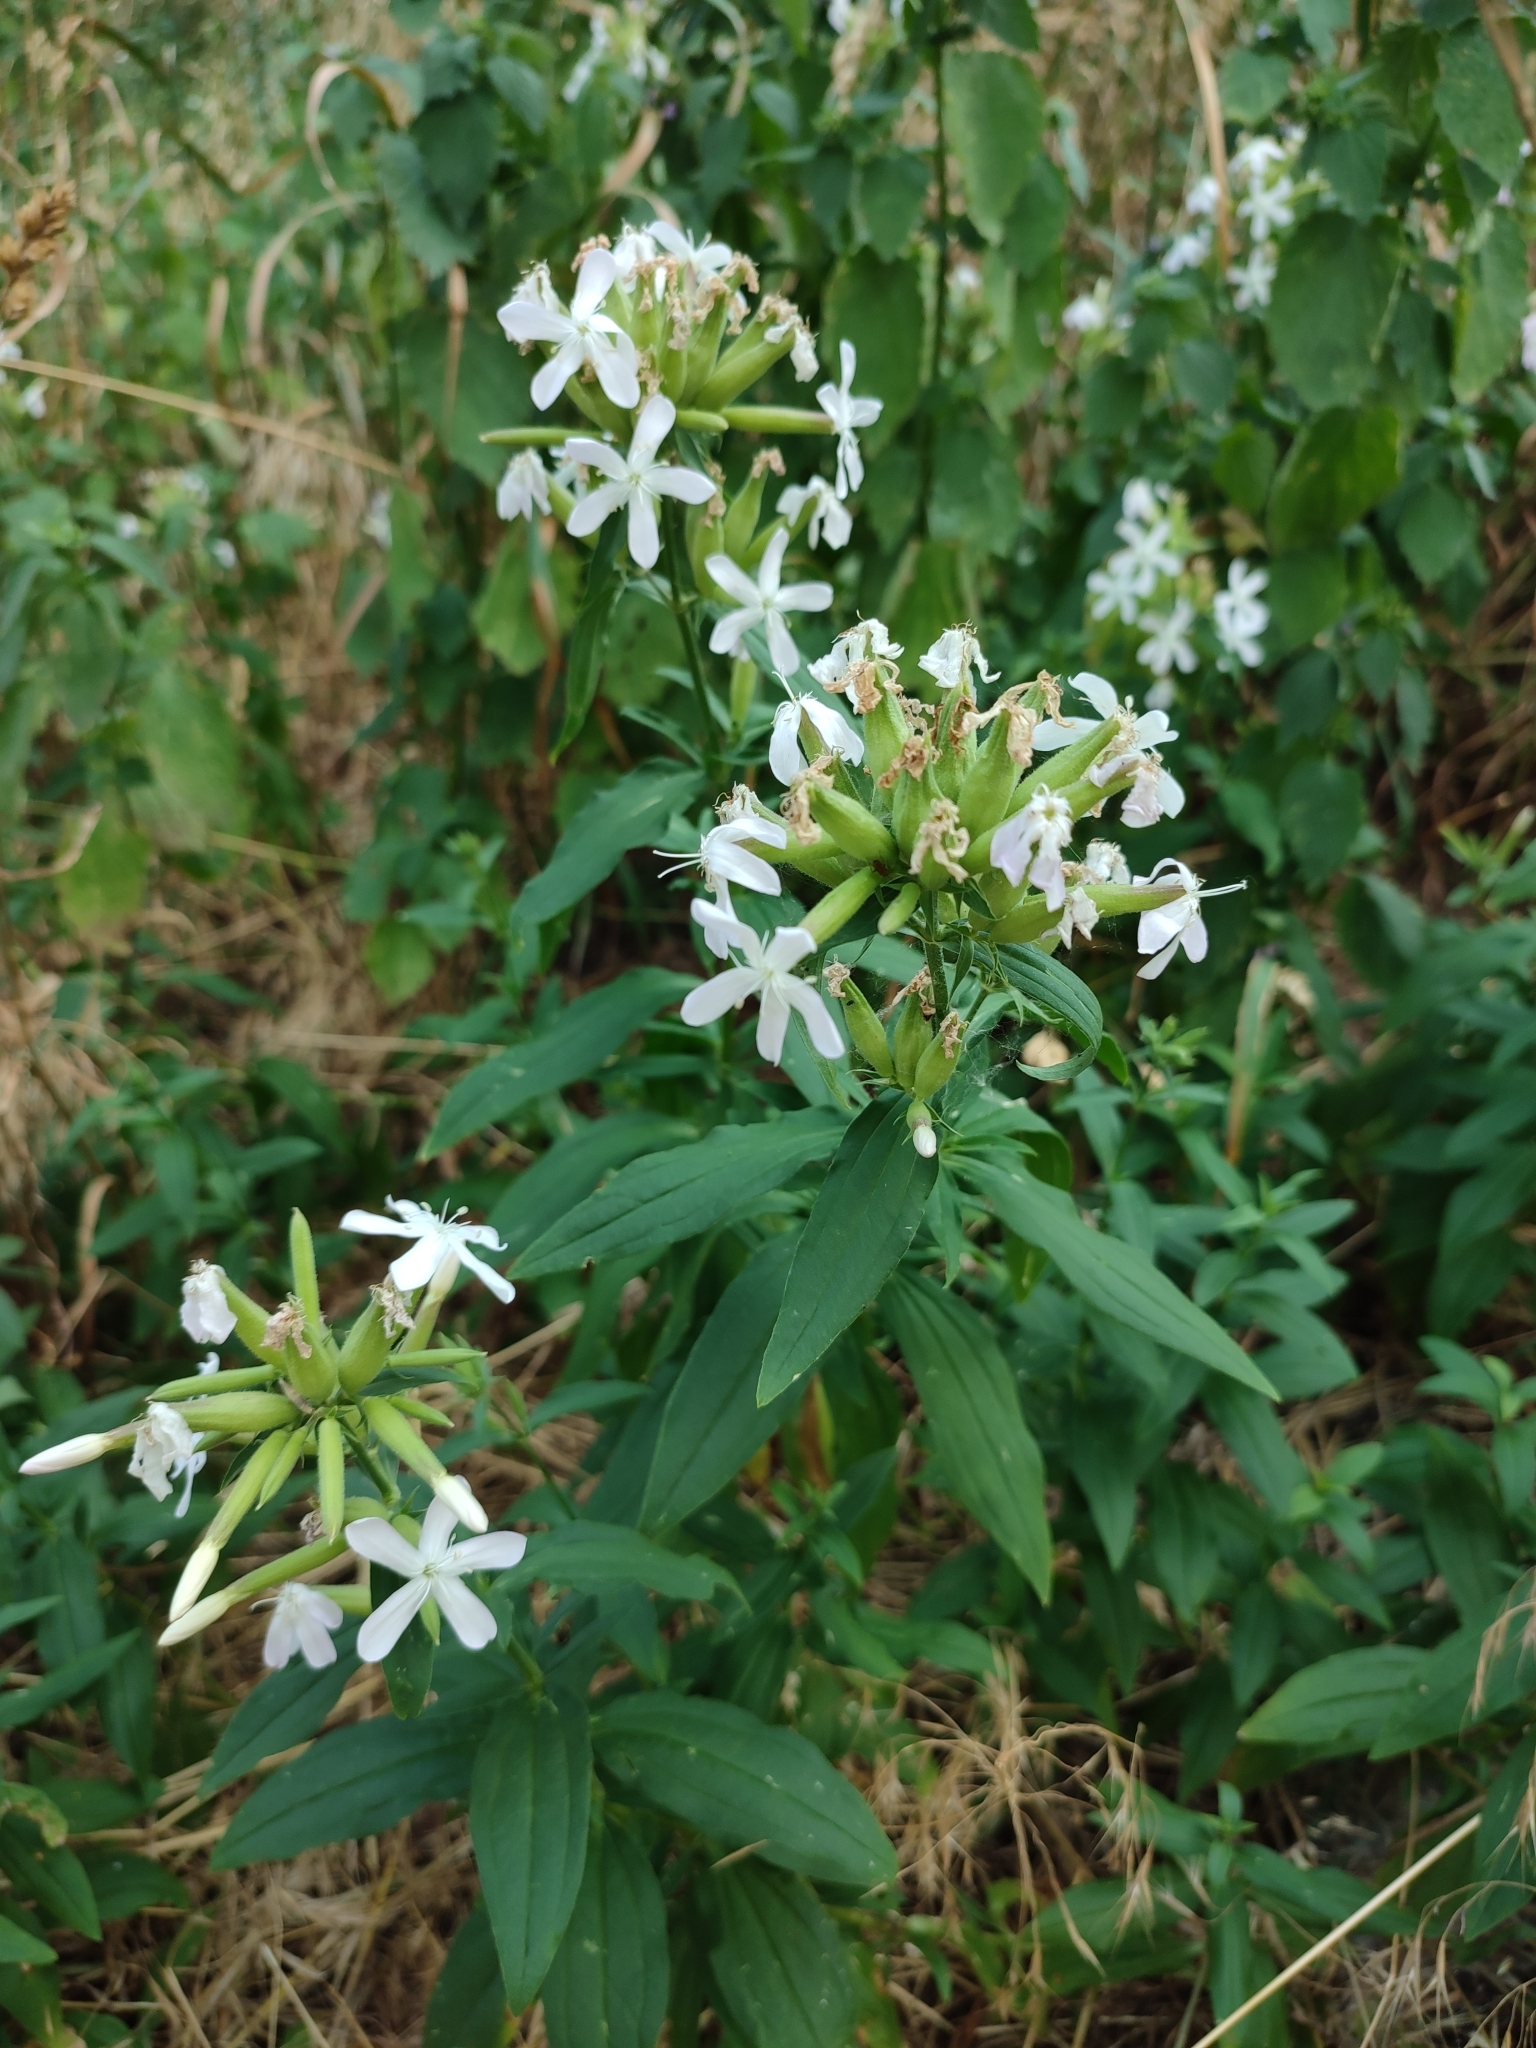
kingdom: Plantae
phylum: Tracheophyta
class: Magnoliopsida
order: Caryophyllales
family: Caryophyllaceae
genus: Saponaria
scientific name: Saponaria officinalis
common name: Soapwort
